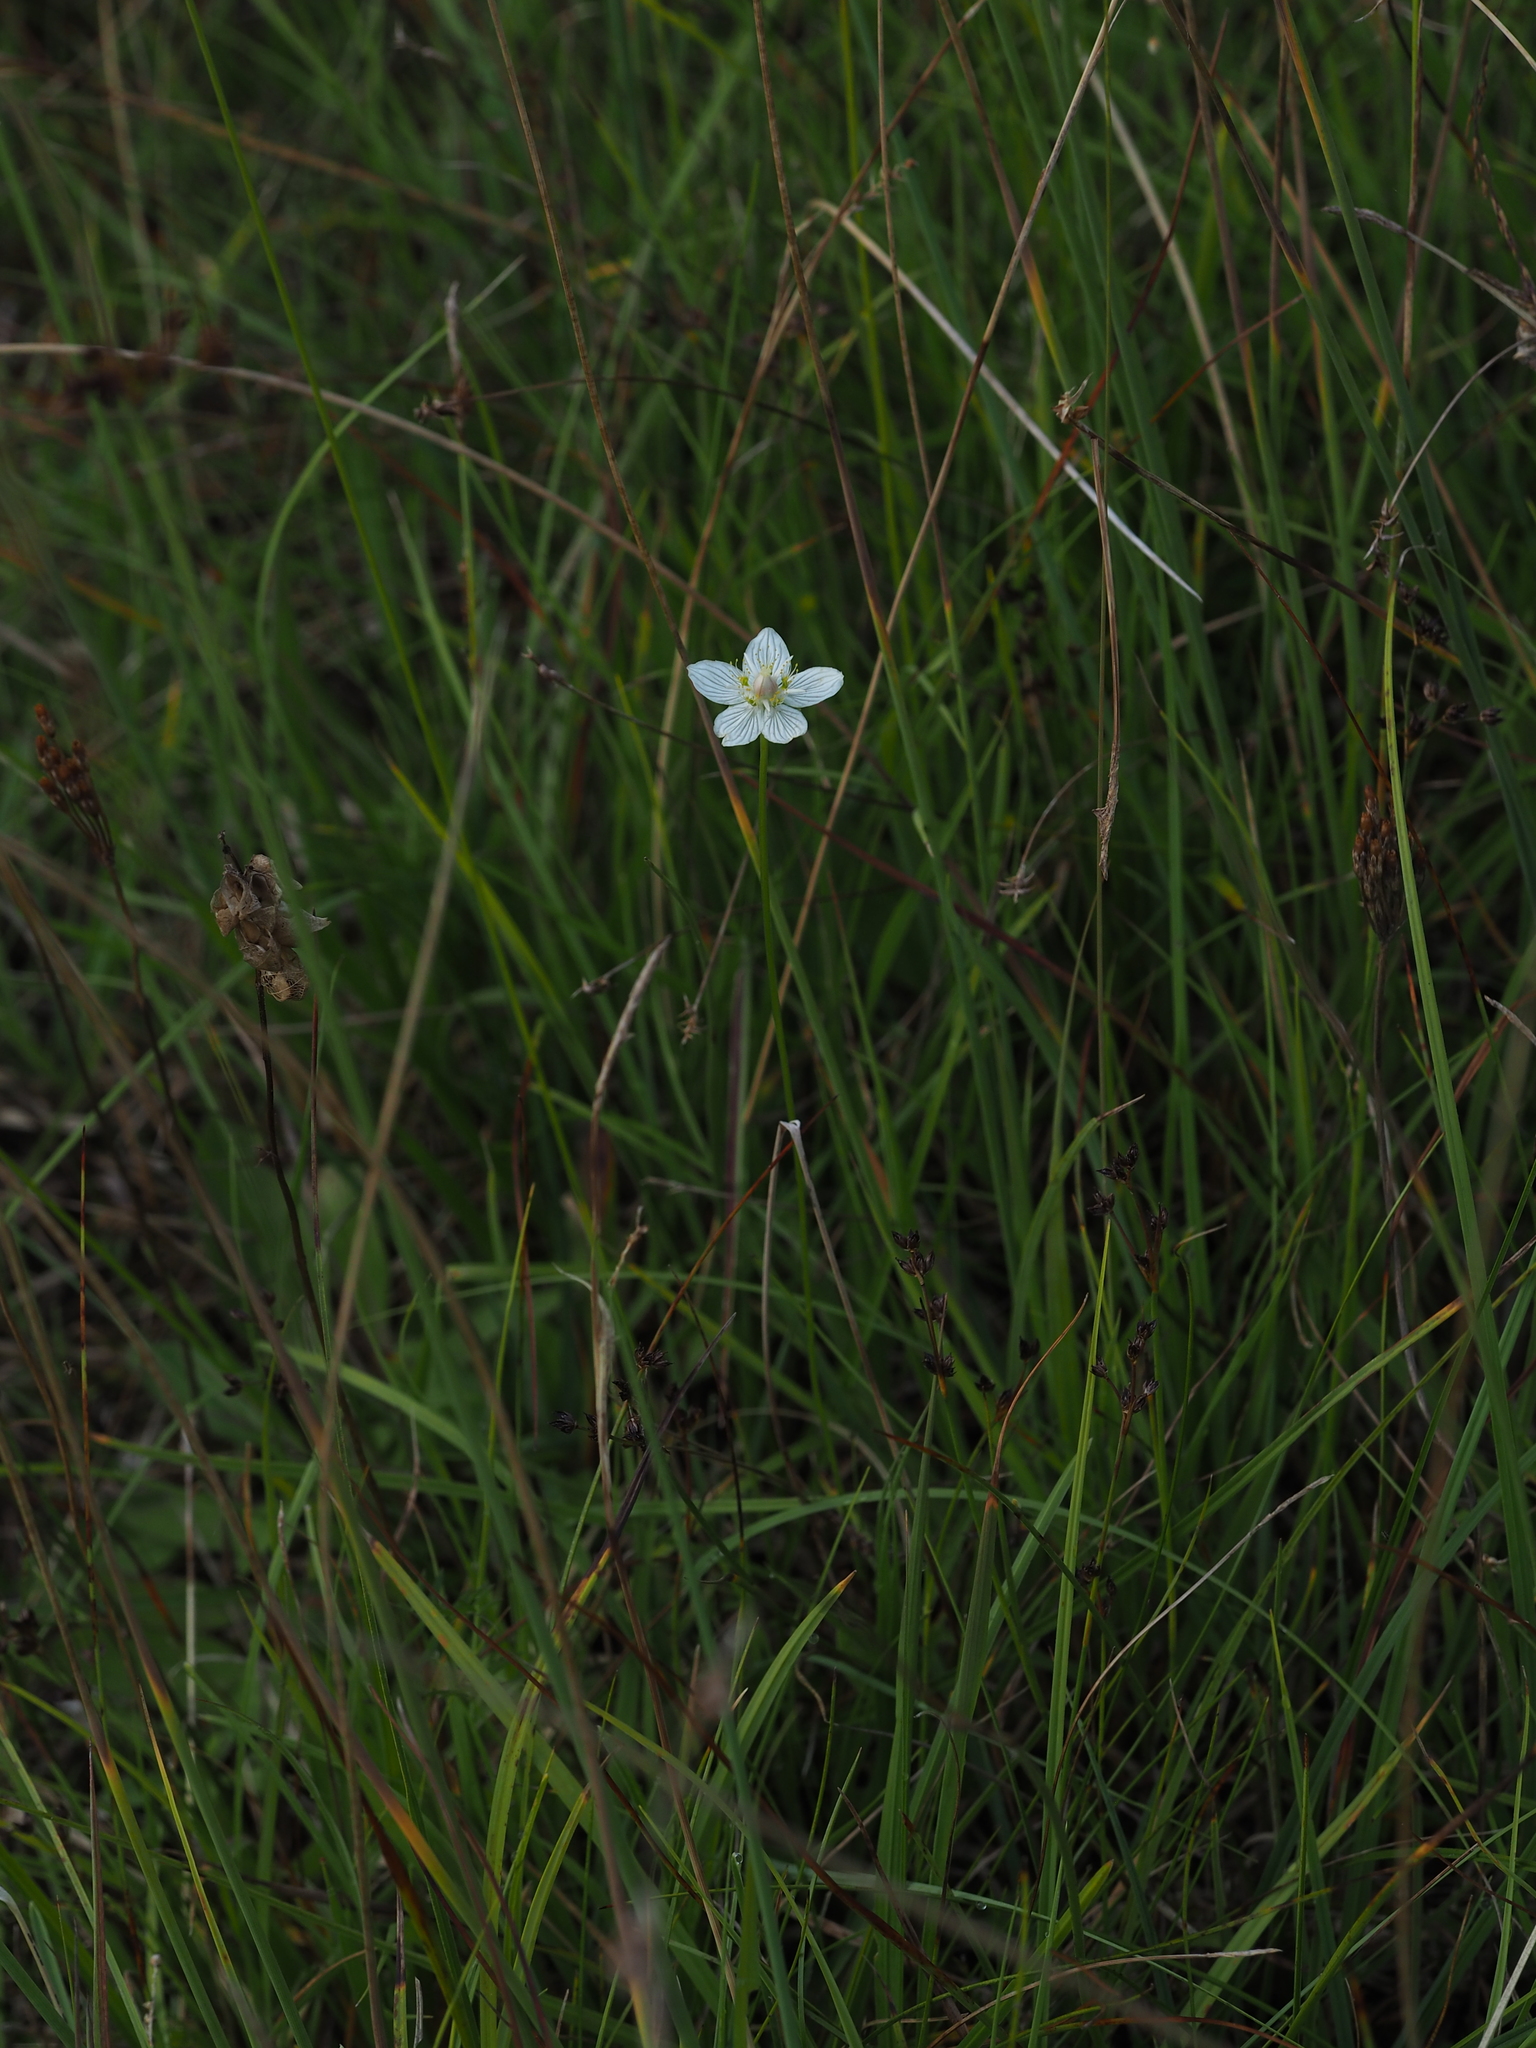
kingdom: Plantae
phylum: Tracheophyta
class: Magnoliopsida
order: Celastrales
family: Parnassiaceae
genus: Parnassia
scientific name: Parnassia palustris
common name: Grass-of-parnassus
